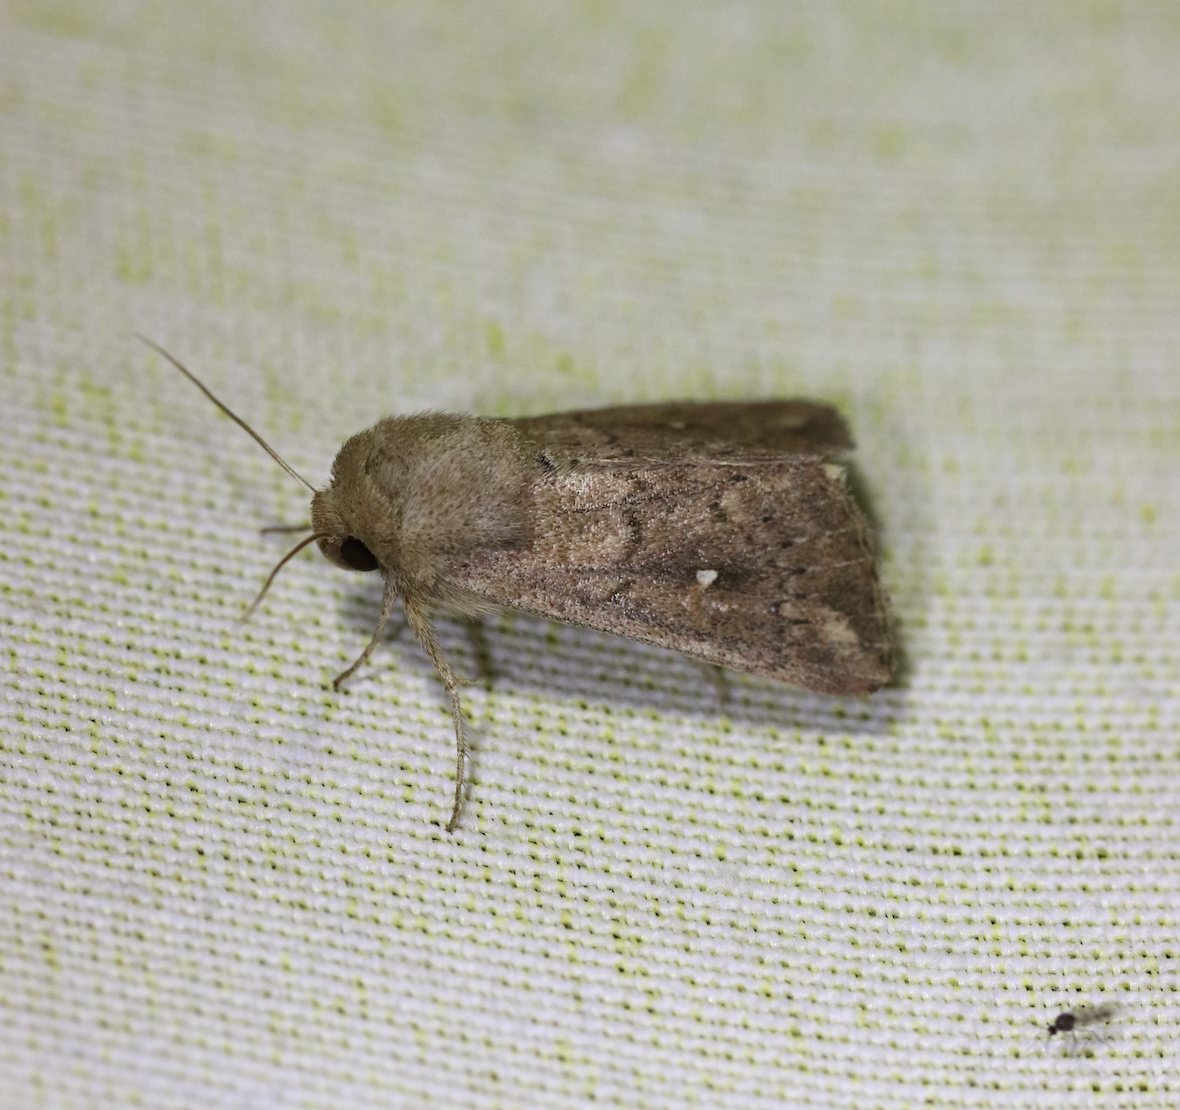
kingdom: Animalia
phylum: Arthropoda
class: Insecta
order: Lepidoptera
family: Noctuidae
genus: Mythimna
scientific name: Mythimna albipuncta
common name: White-point
